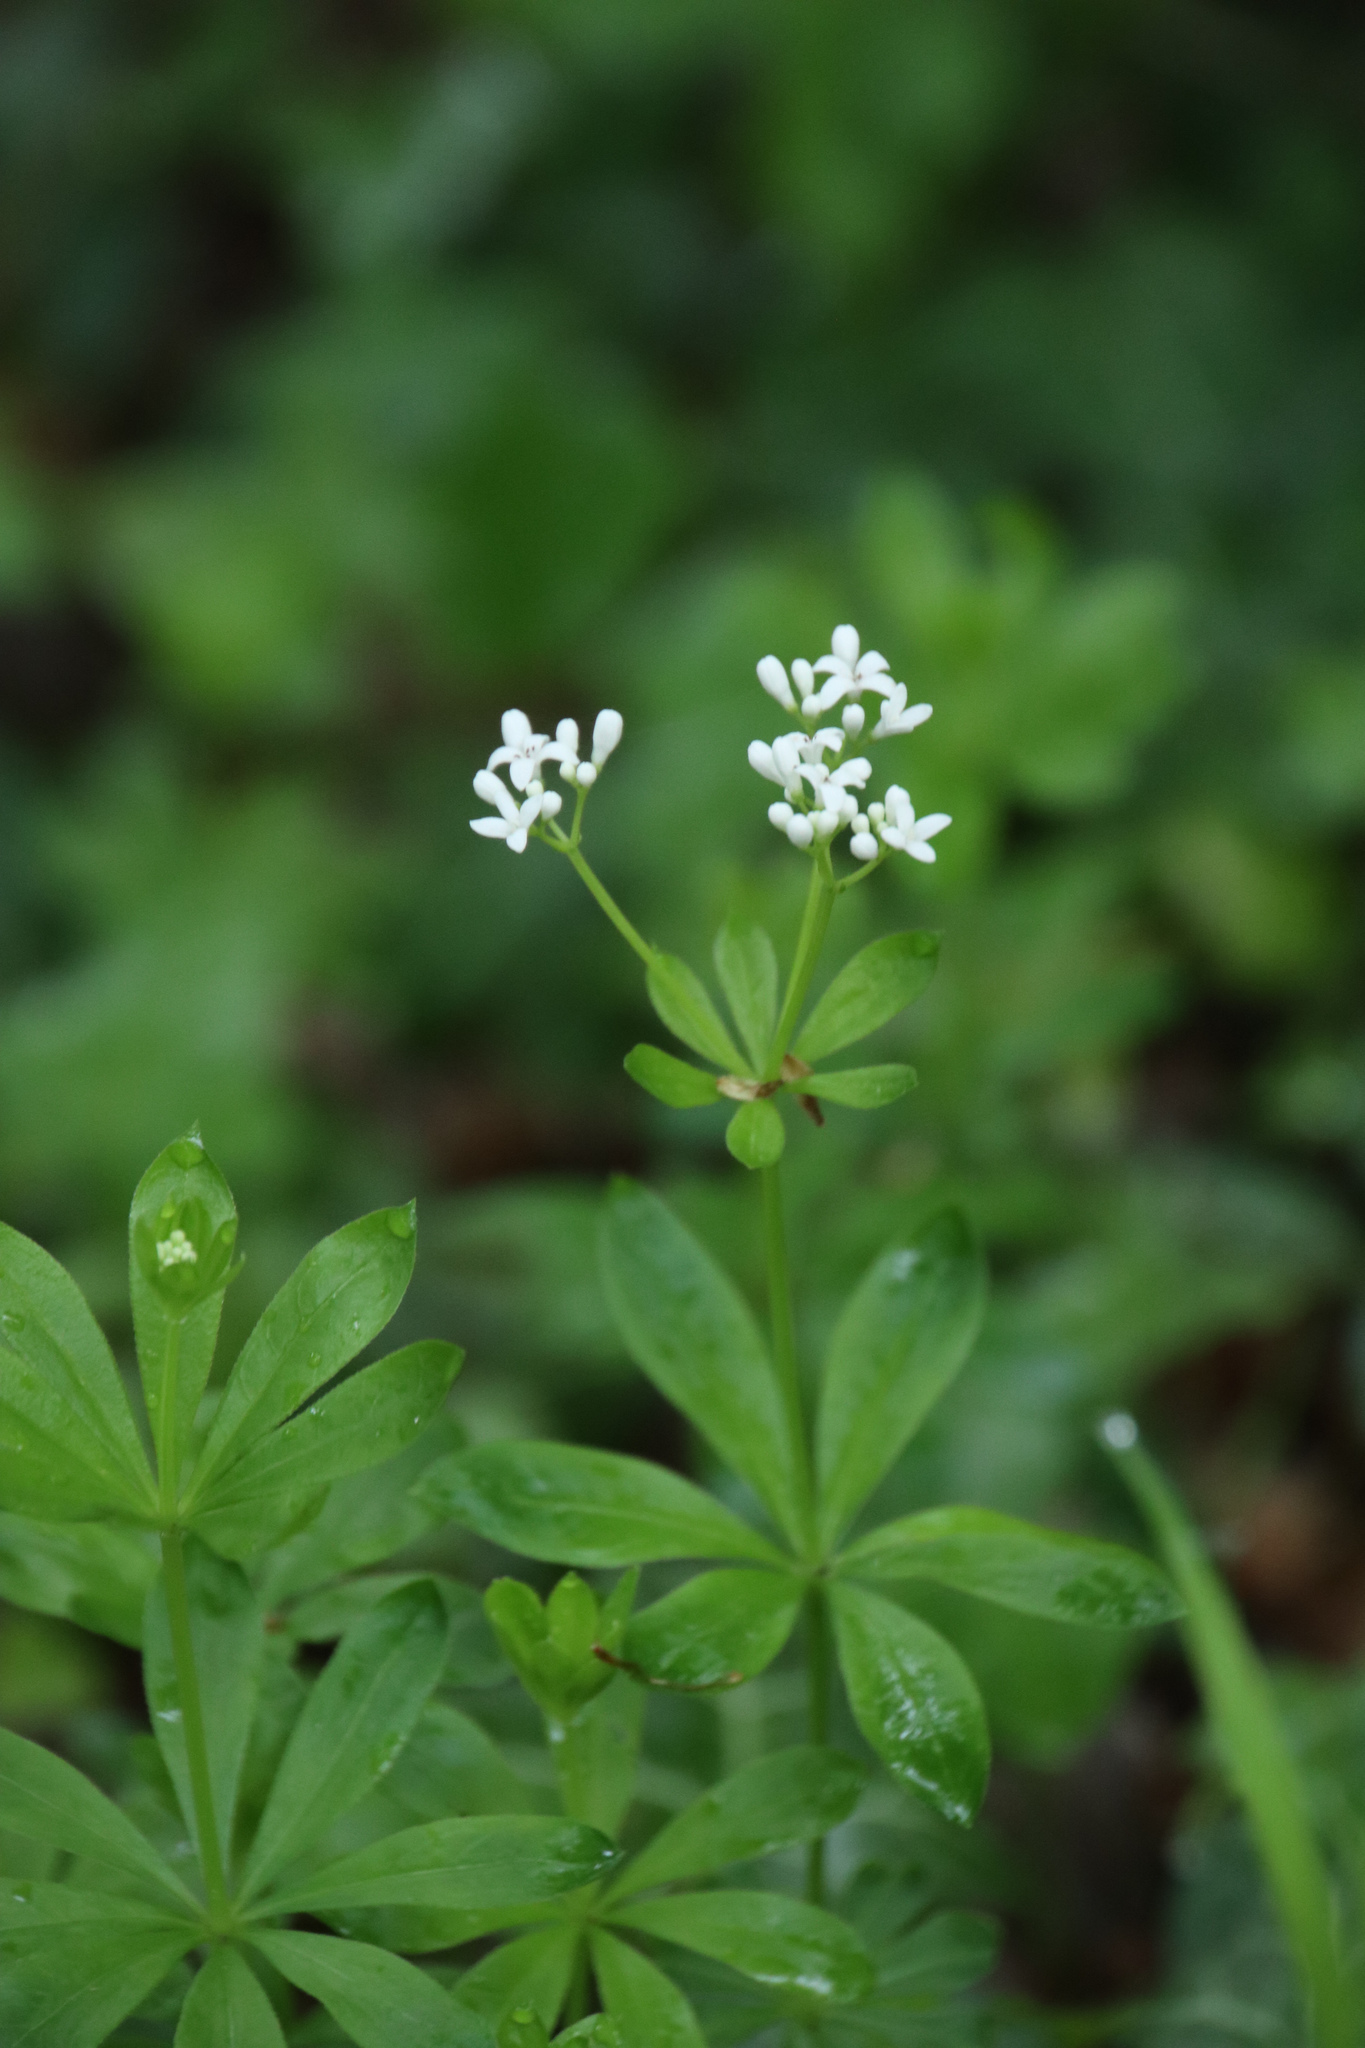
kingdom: Plantae
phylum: Tracheophyta
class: Magnoliopsida
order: Gentianales
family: Rubiaceae
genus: Galium
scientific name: Galium odoratum
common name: Sweet woodruff
